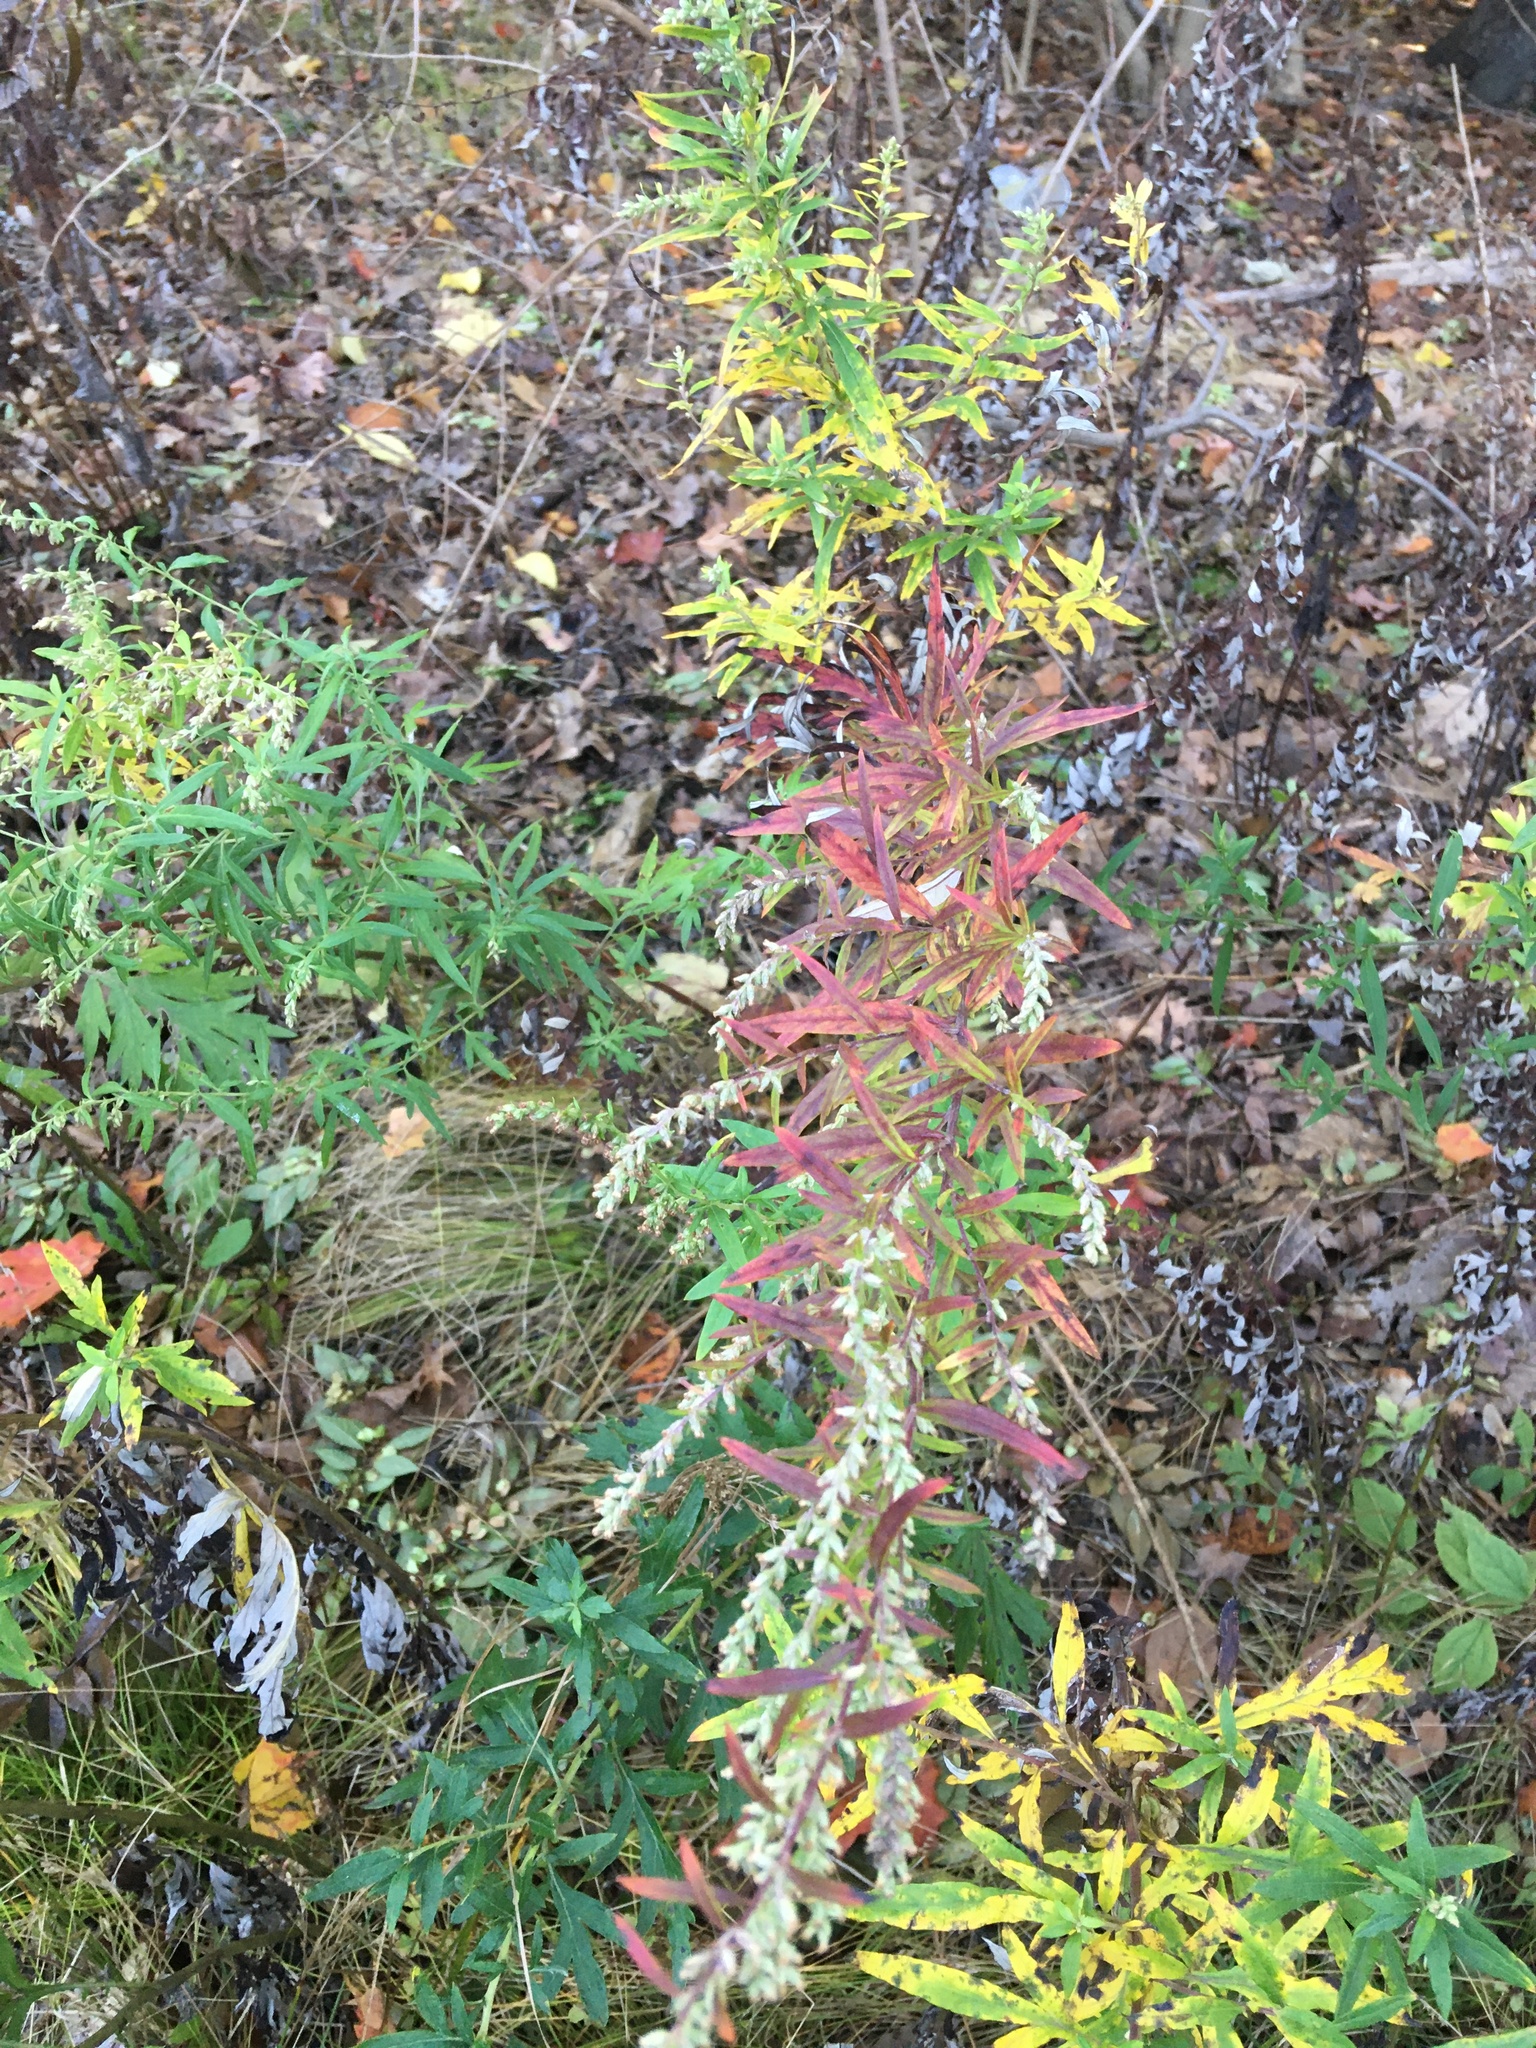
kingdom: Plantae
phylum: Tracheophyta
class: Magnoliopsida
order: Asterales
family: Asteraceae
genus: Artemisia
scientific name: Artemisia vulgaris
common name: Mugwort
